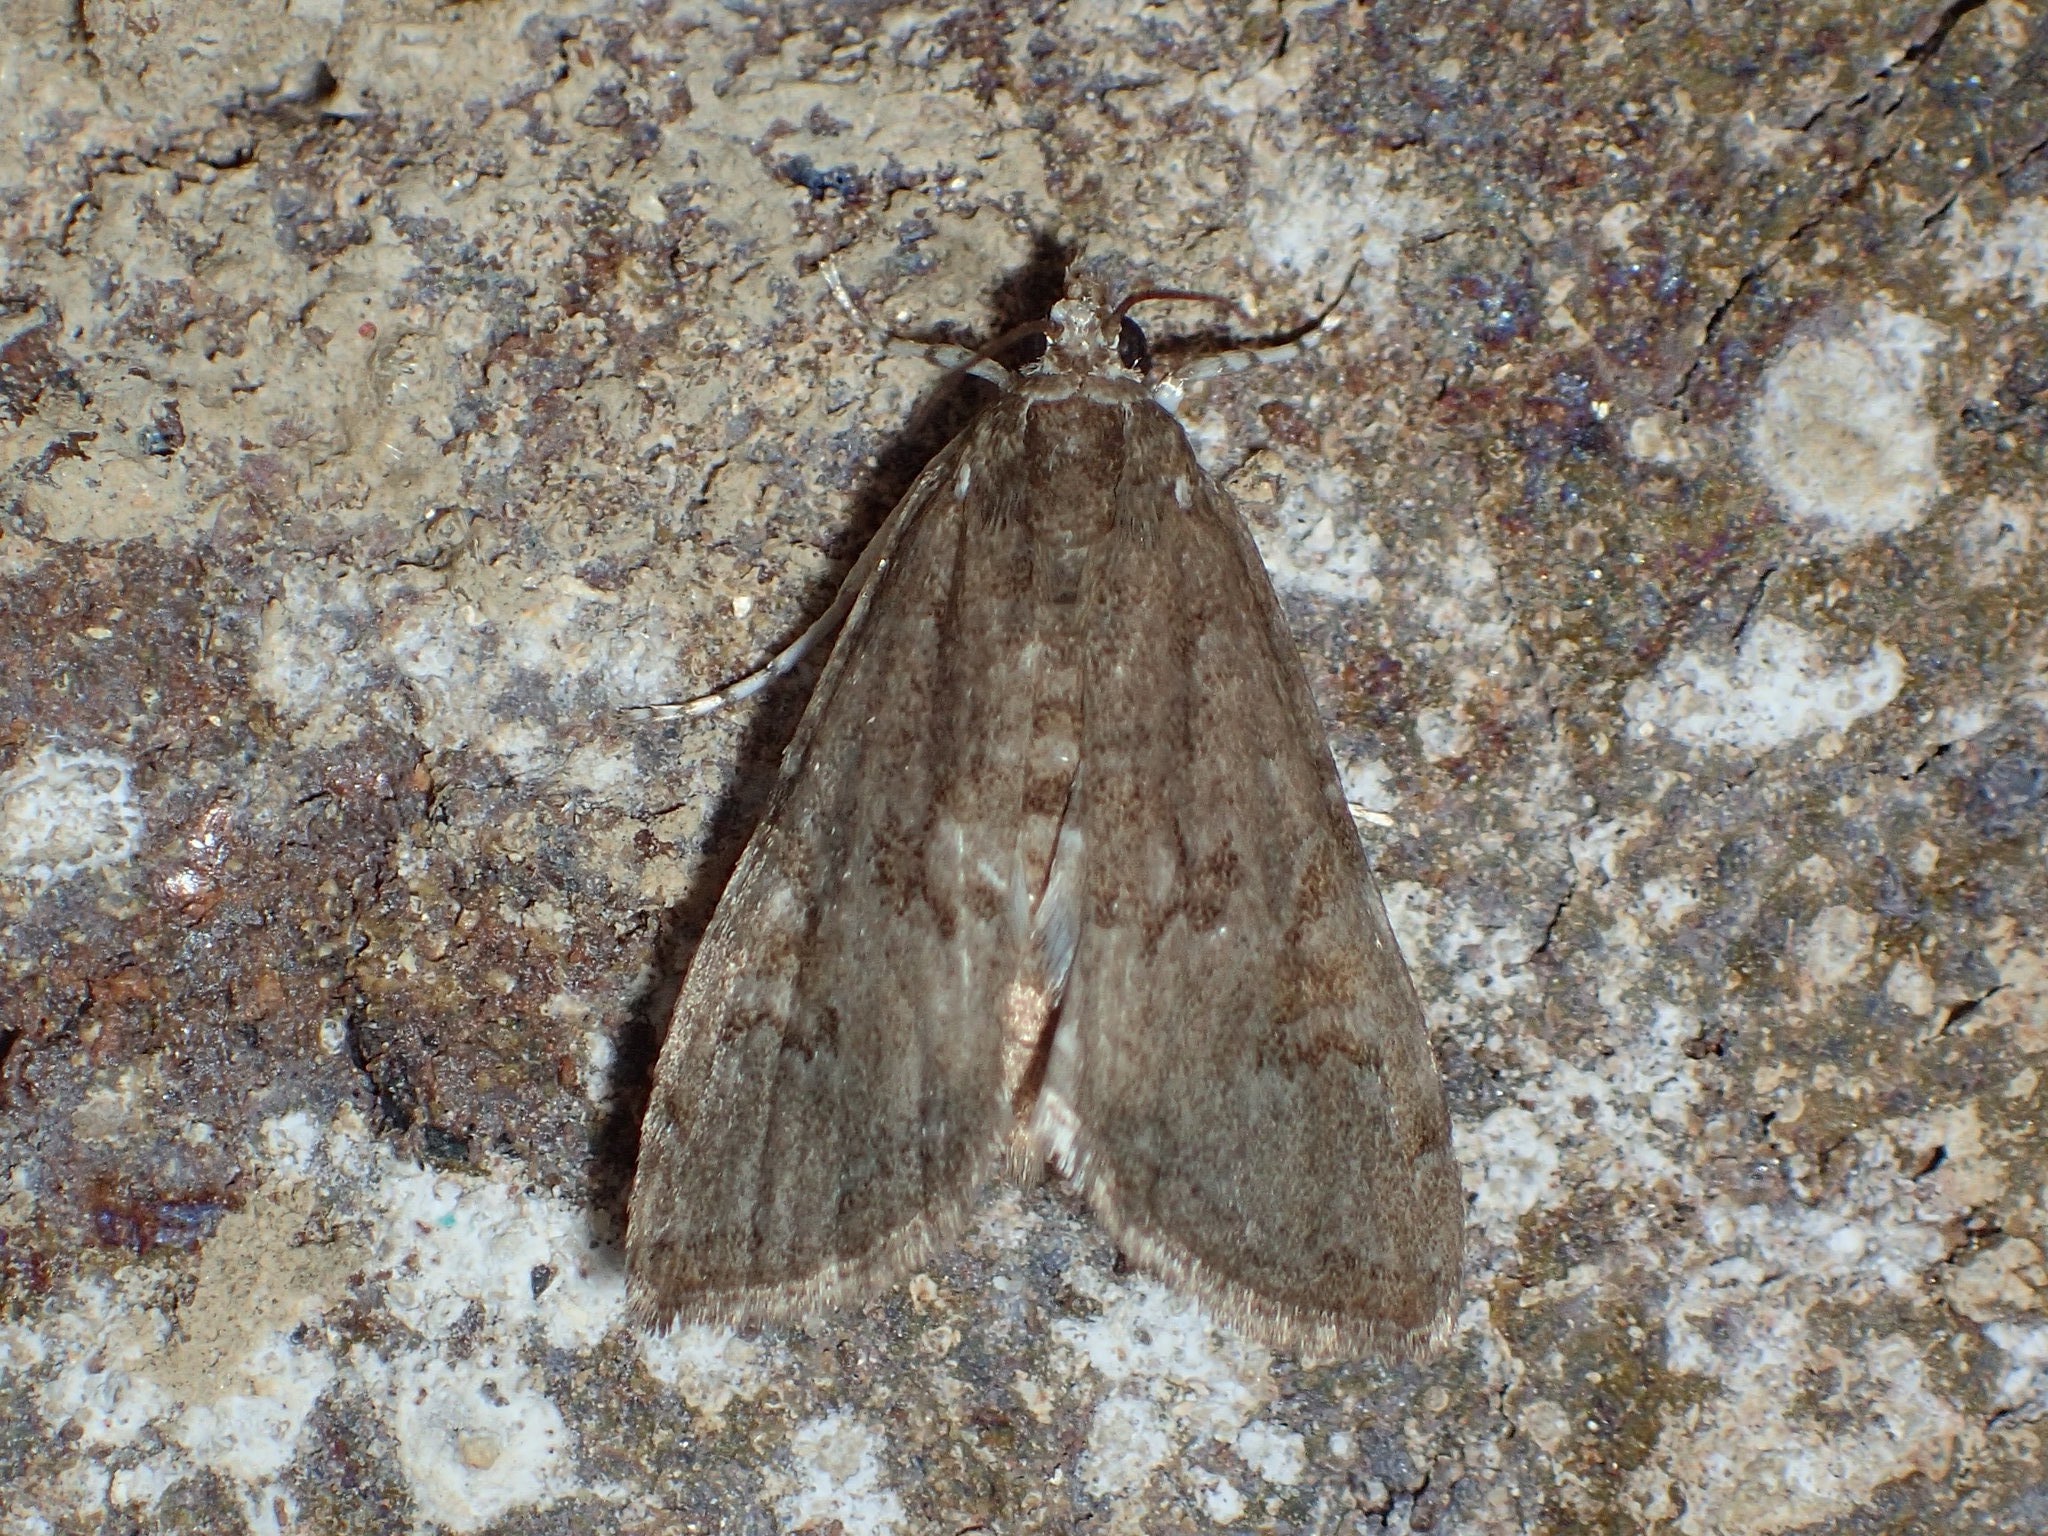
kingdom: Animalia
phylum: Arthropoda
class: Insecta
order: Lepidoptera
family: Crambidae
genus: Elophila
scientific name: Elophila gyralis
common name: Waterlily borer moth
